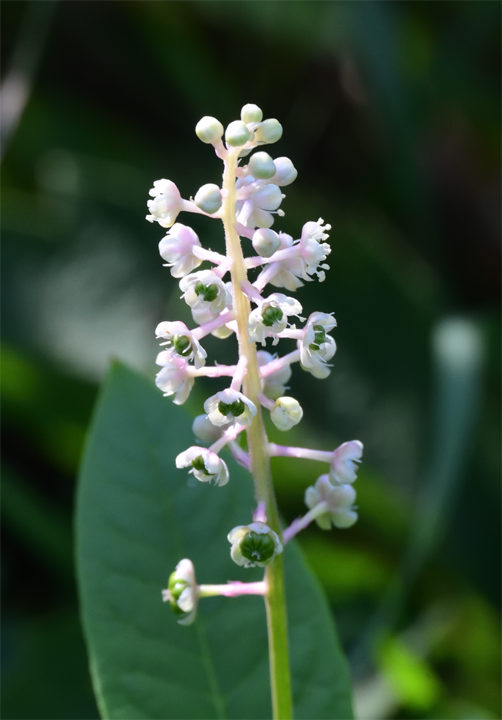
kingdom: Plantae
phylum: Tracheophyta
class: Magnoliopsida
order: Caryophyllales
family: Phytolaccaceae
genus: Phytolacca
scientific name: Phytolacca americana
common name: American pokeweed
